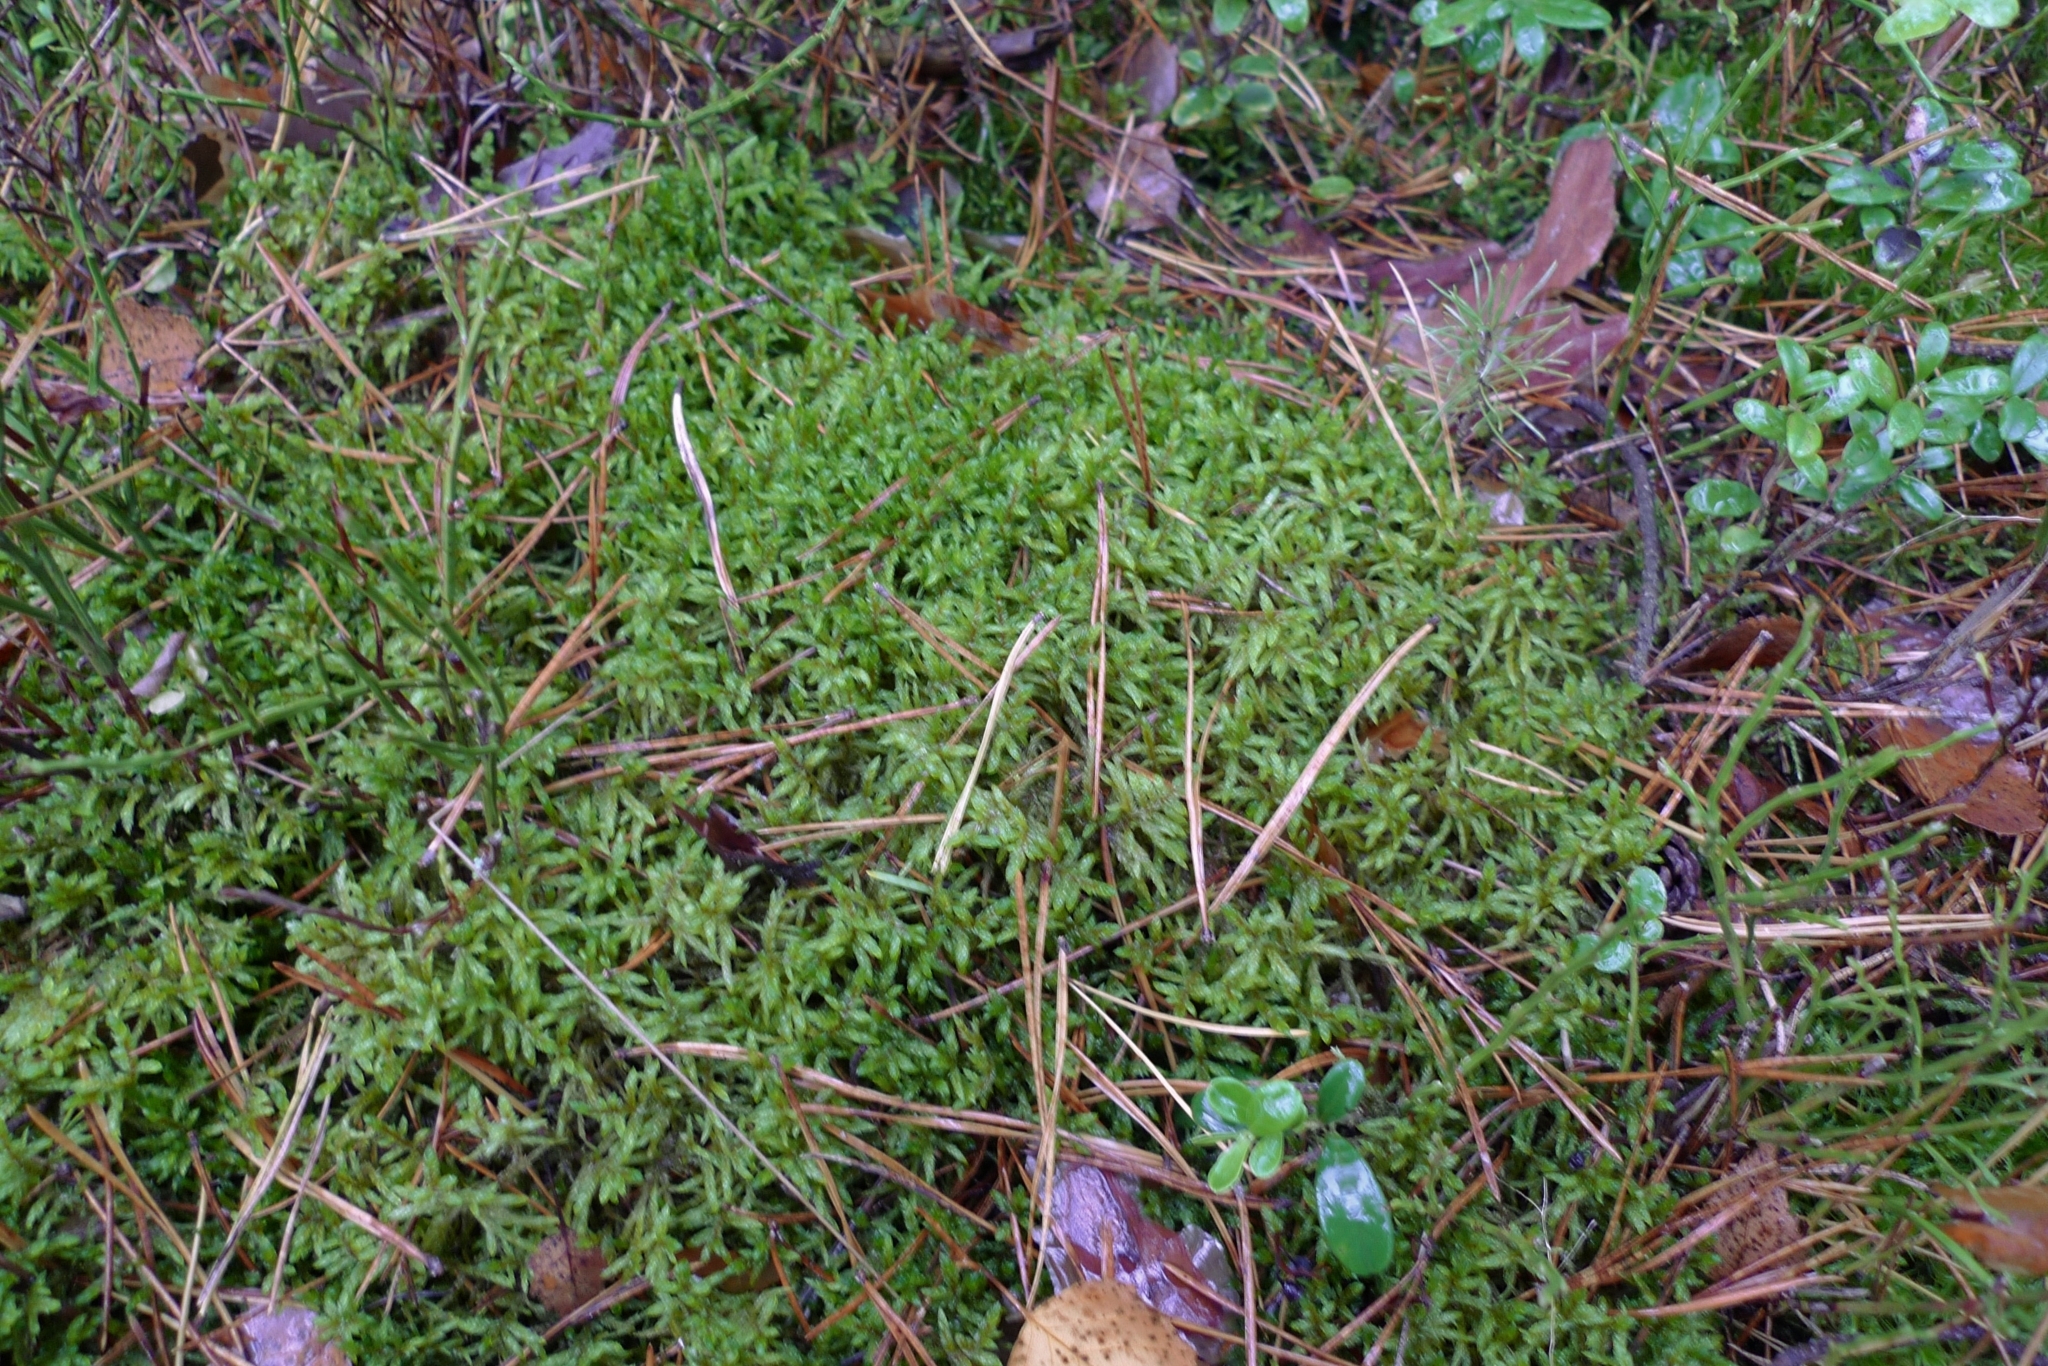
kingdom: Plantae
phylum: Bryophyta
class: Bryopsida
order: Hypnales
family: Hylocomiaceae
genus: Pleurozium
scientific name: Pleurozium schreberi
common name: Red-stemmed feather moss
